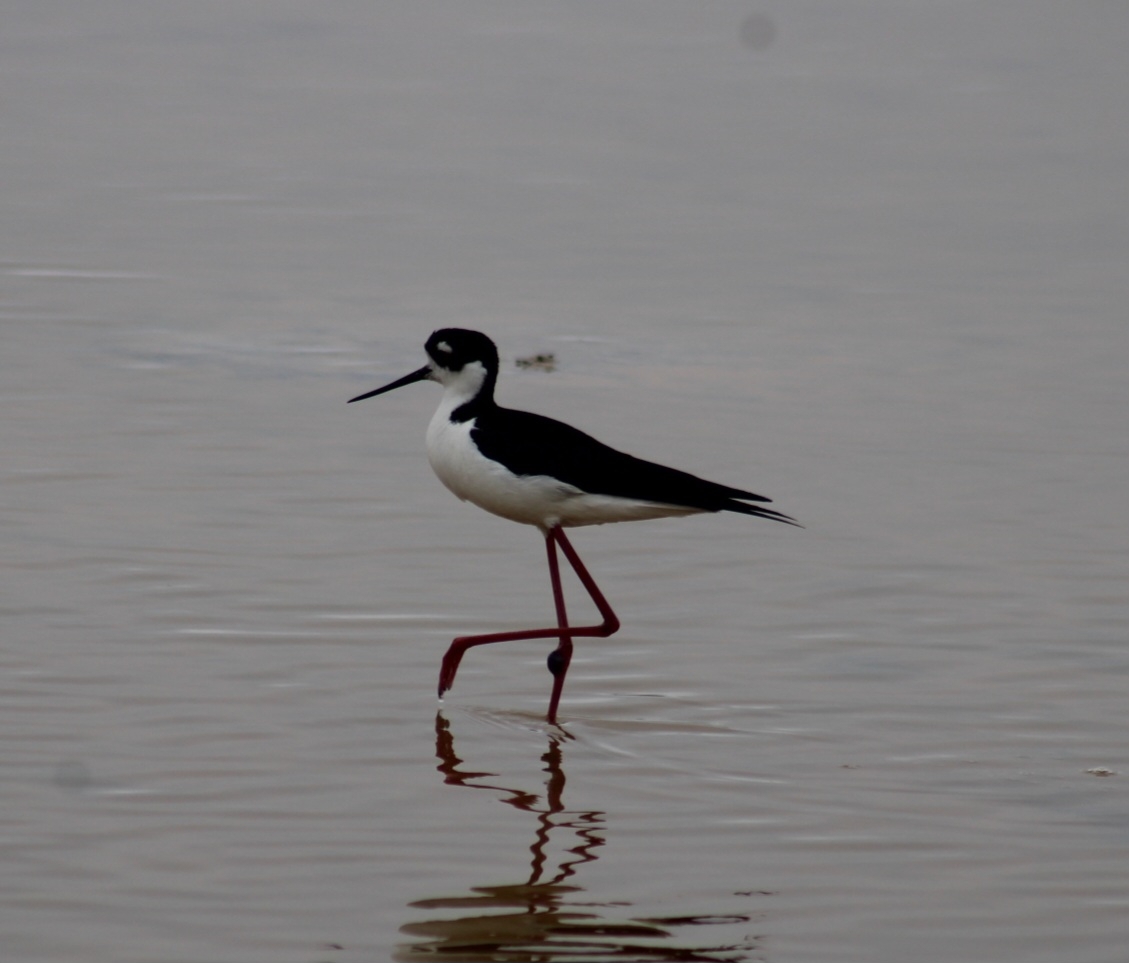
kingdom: Animalia
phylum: Chordata
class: Aves
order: Charadriiformes
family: Recurvirostridae
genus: Himantopus
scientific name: Himantopus mexicanus
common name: Black-necked stilt
